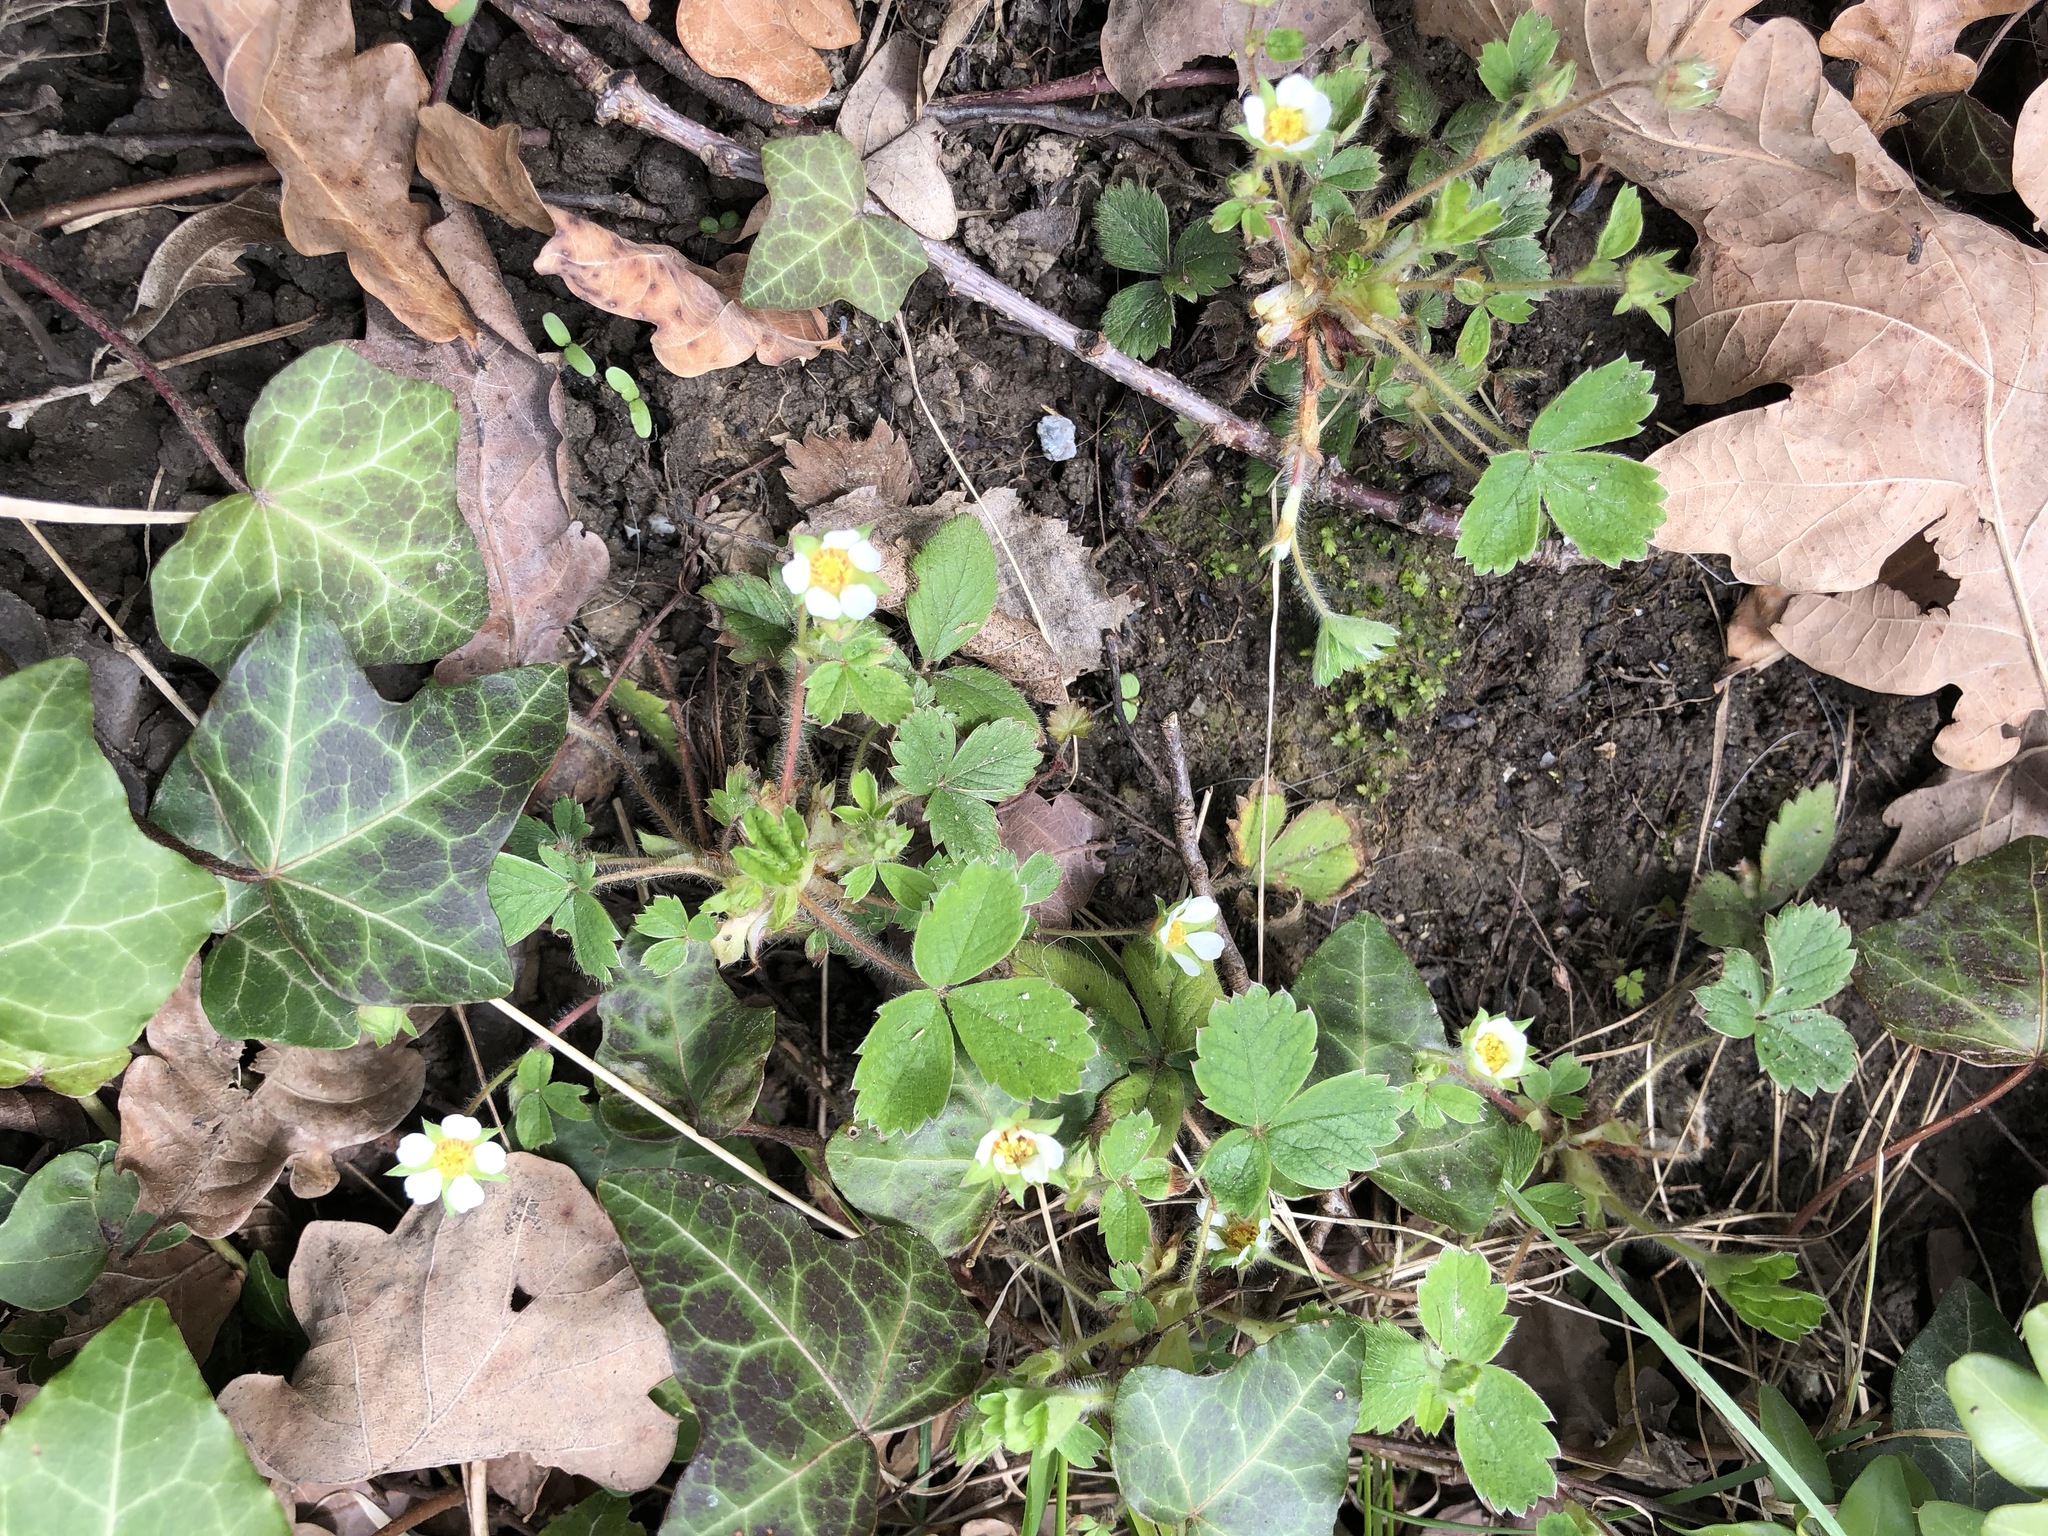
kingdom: Plantae
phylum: Tracheophyta
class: Magnoliopsida
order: Rosales
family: Rosaceae
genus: Potentilla
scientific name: Potentilla sterilis
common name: Barren strawberry
